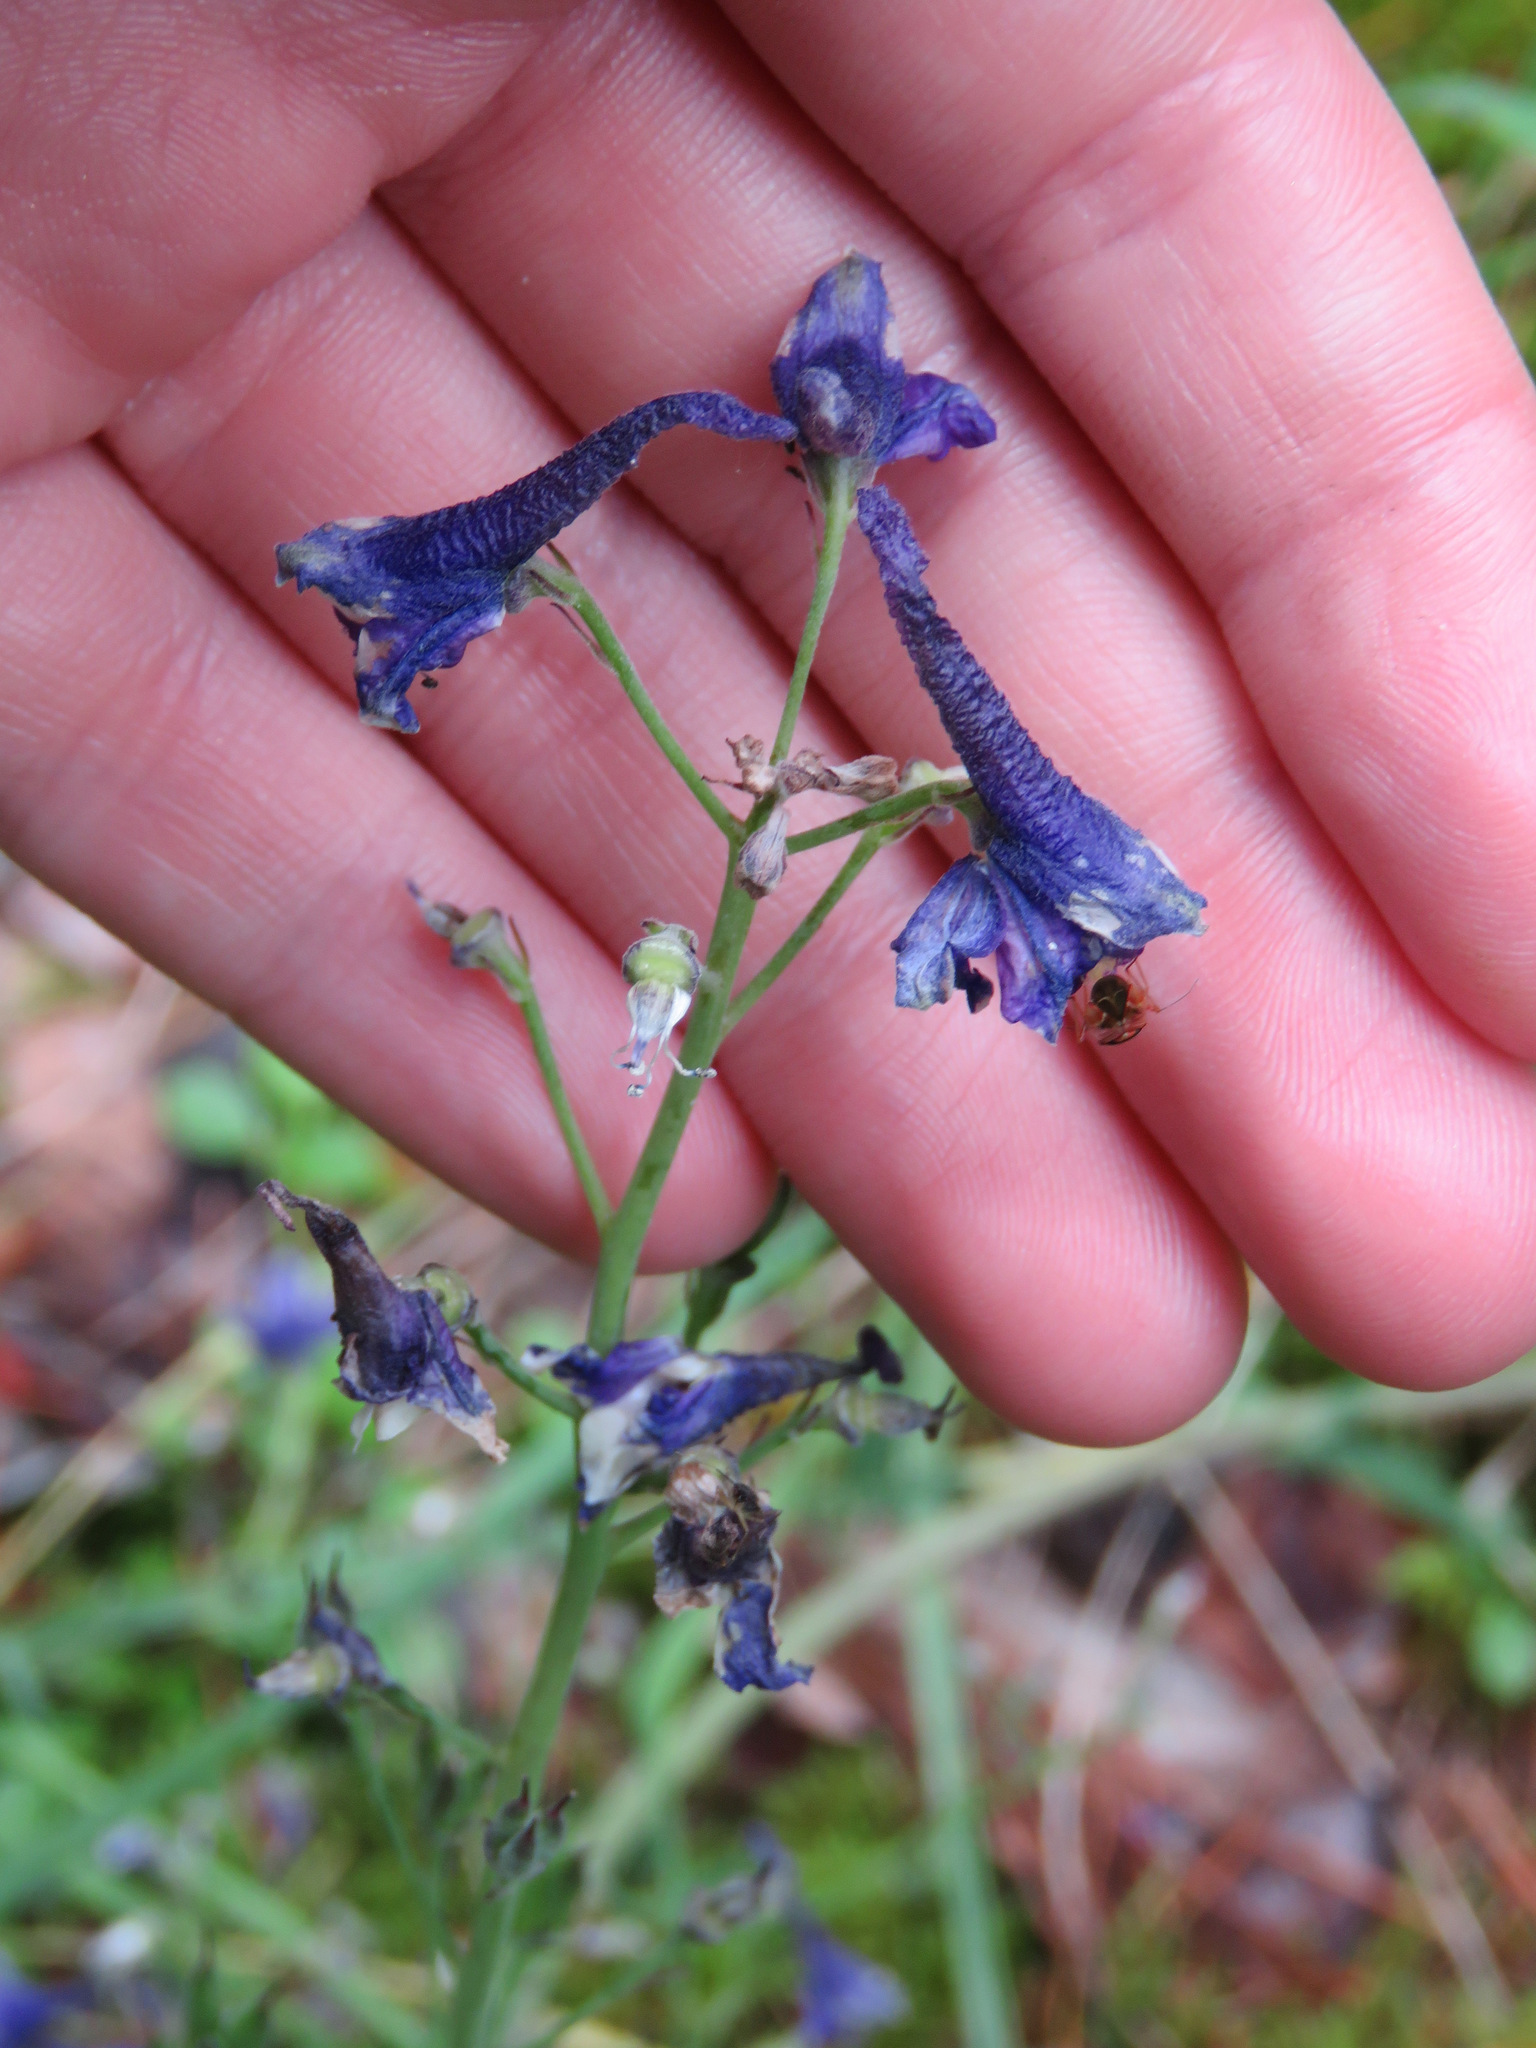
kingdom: Plantae
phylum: Tracheophyta
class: Magnoliopsida
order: Ranunculales
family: Ranunculaceae
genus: Delphinium
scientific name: Delphinium glaucum
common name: Brown's larkspur
